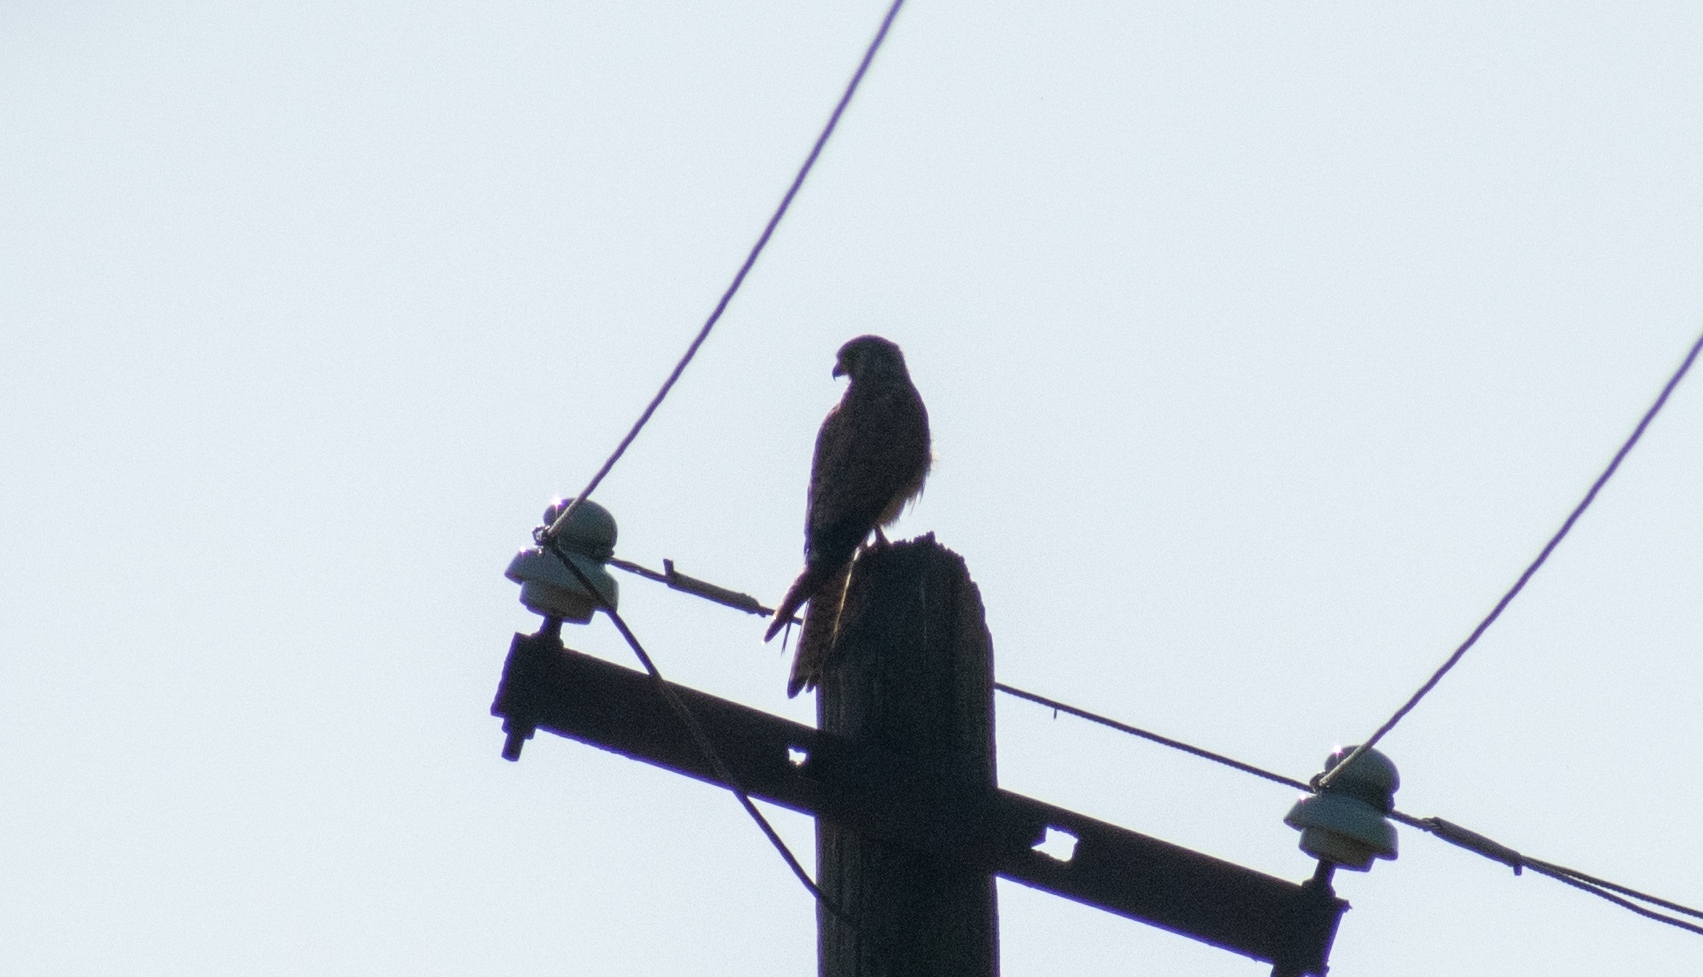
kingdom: Animalia
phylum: Chordata
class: Aves
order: Falconiformes
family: Falconidae
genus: Falco
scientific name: Falco tinnunculus
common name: Common kestrel
